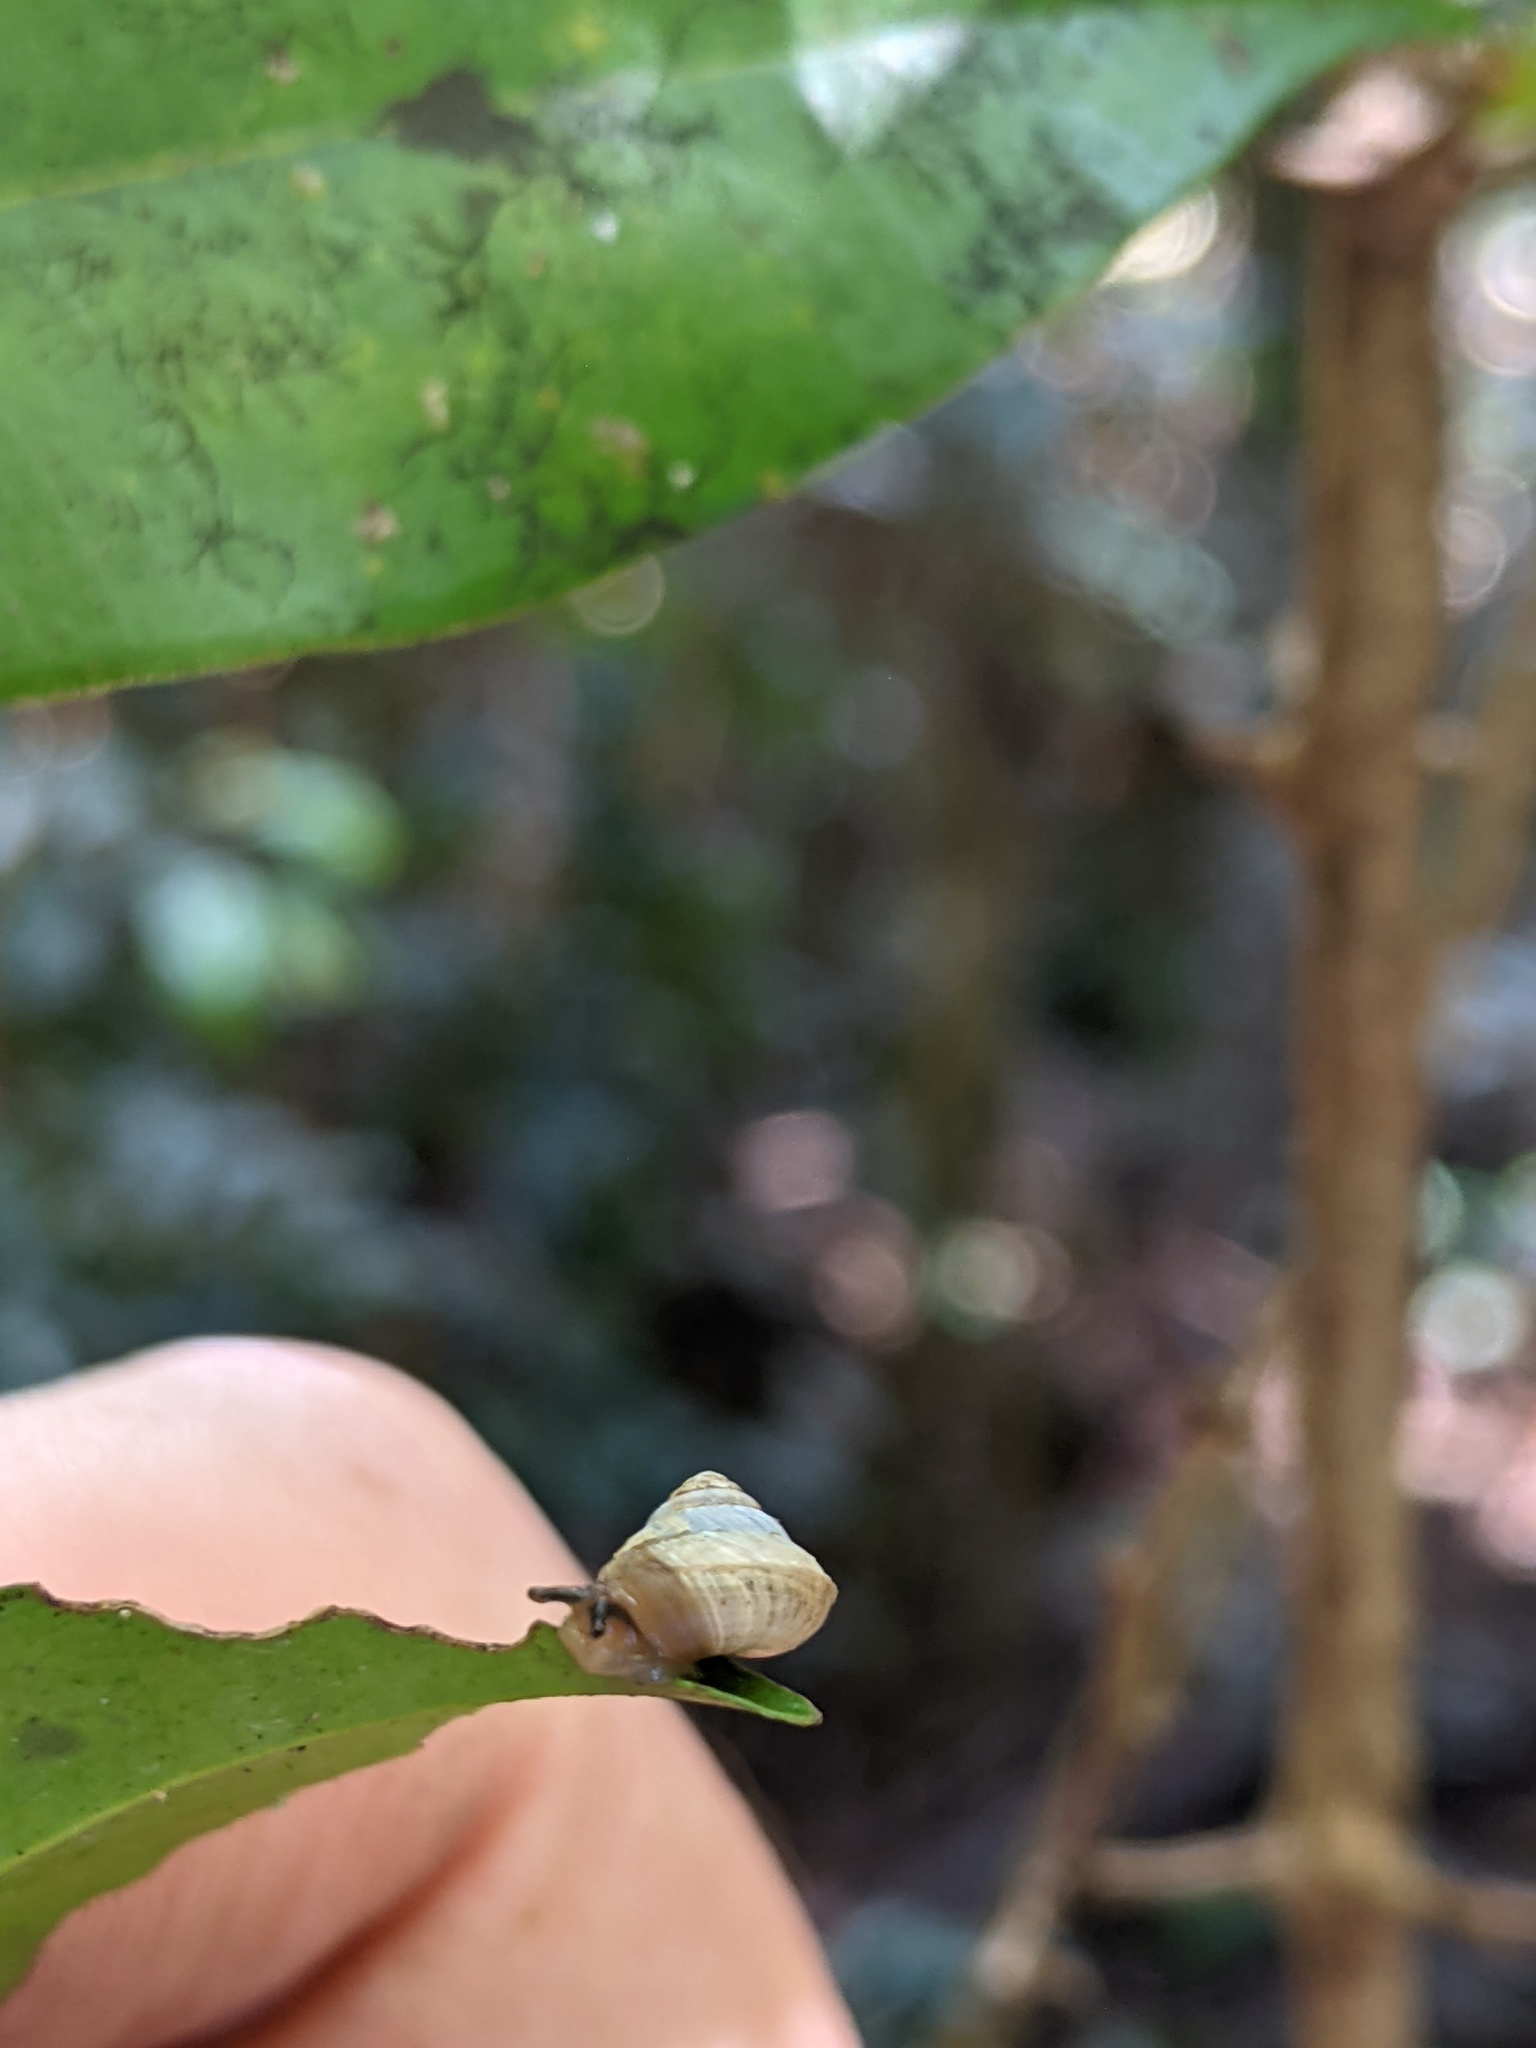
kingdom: Animalia
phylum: Mollusca
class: Gastropoda
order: Stylommatophora
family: Charopidae
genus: Hedleyoconcha
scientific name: Hedleyoconcha delta
